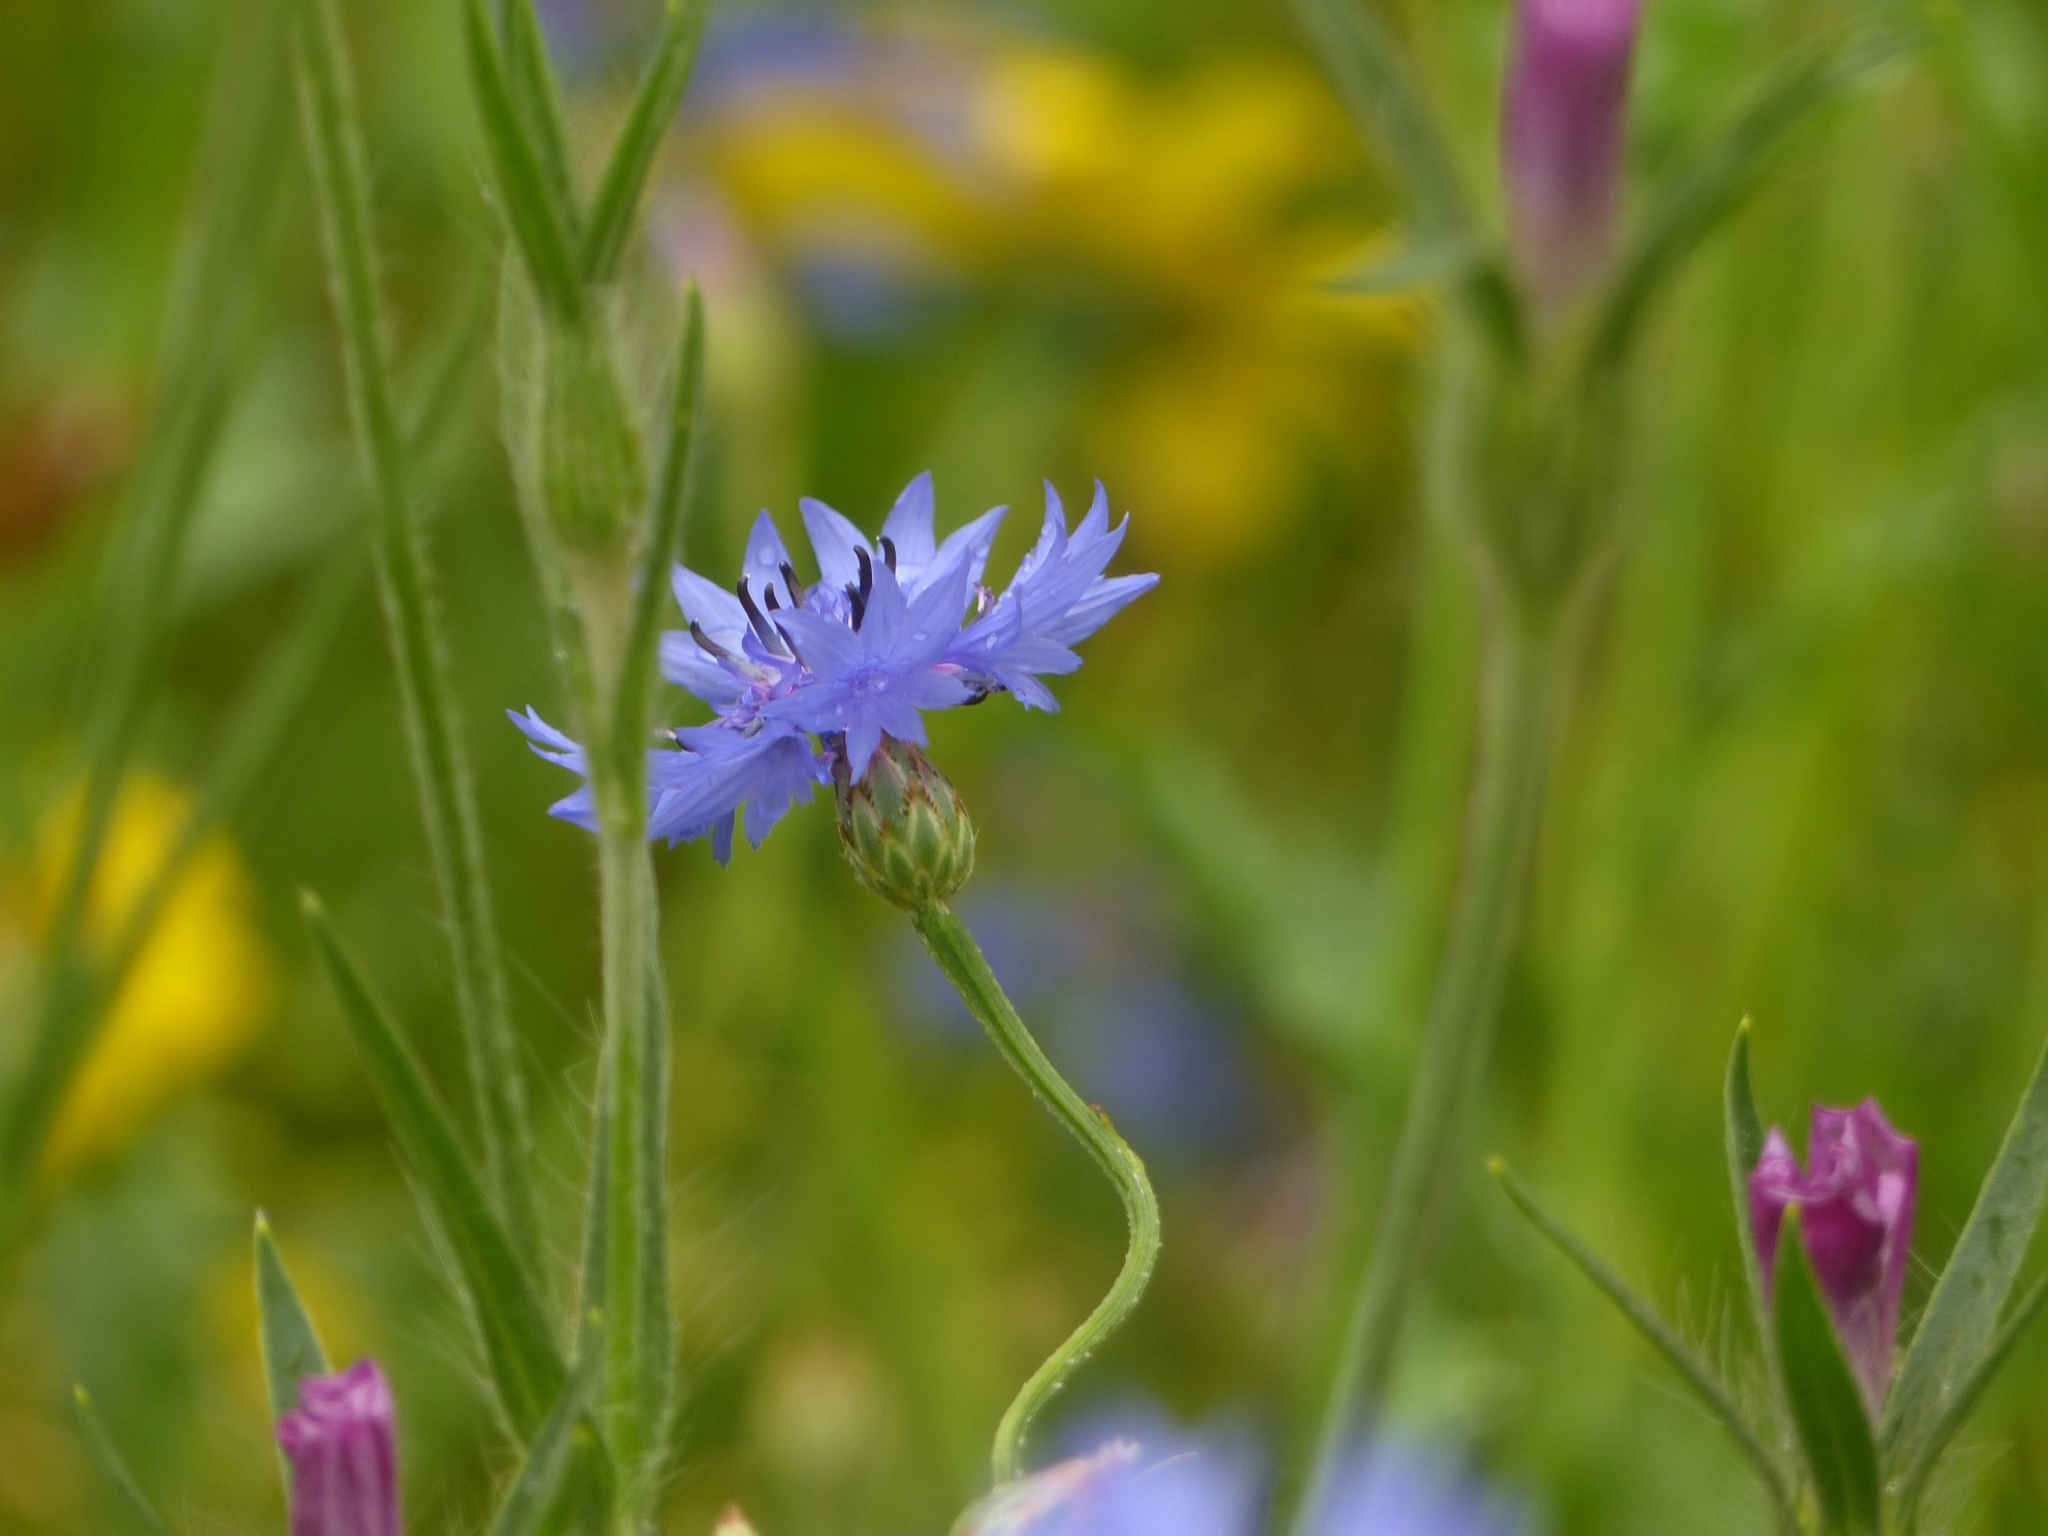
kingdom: Plantae
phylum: Tracheophyta
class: Magnoliopsida
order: Asterales
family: Asteraceae
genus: Centaurea
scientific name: Centaurea cyanus
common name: Cornflower
